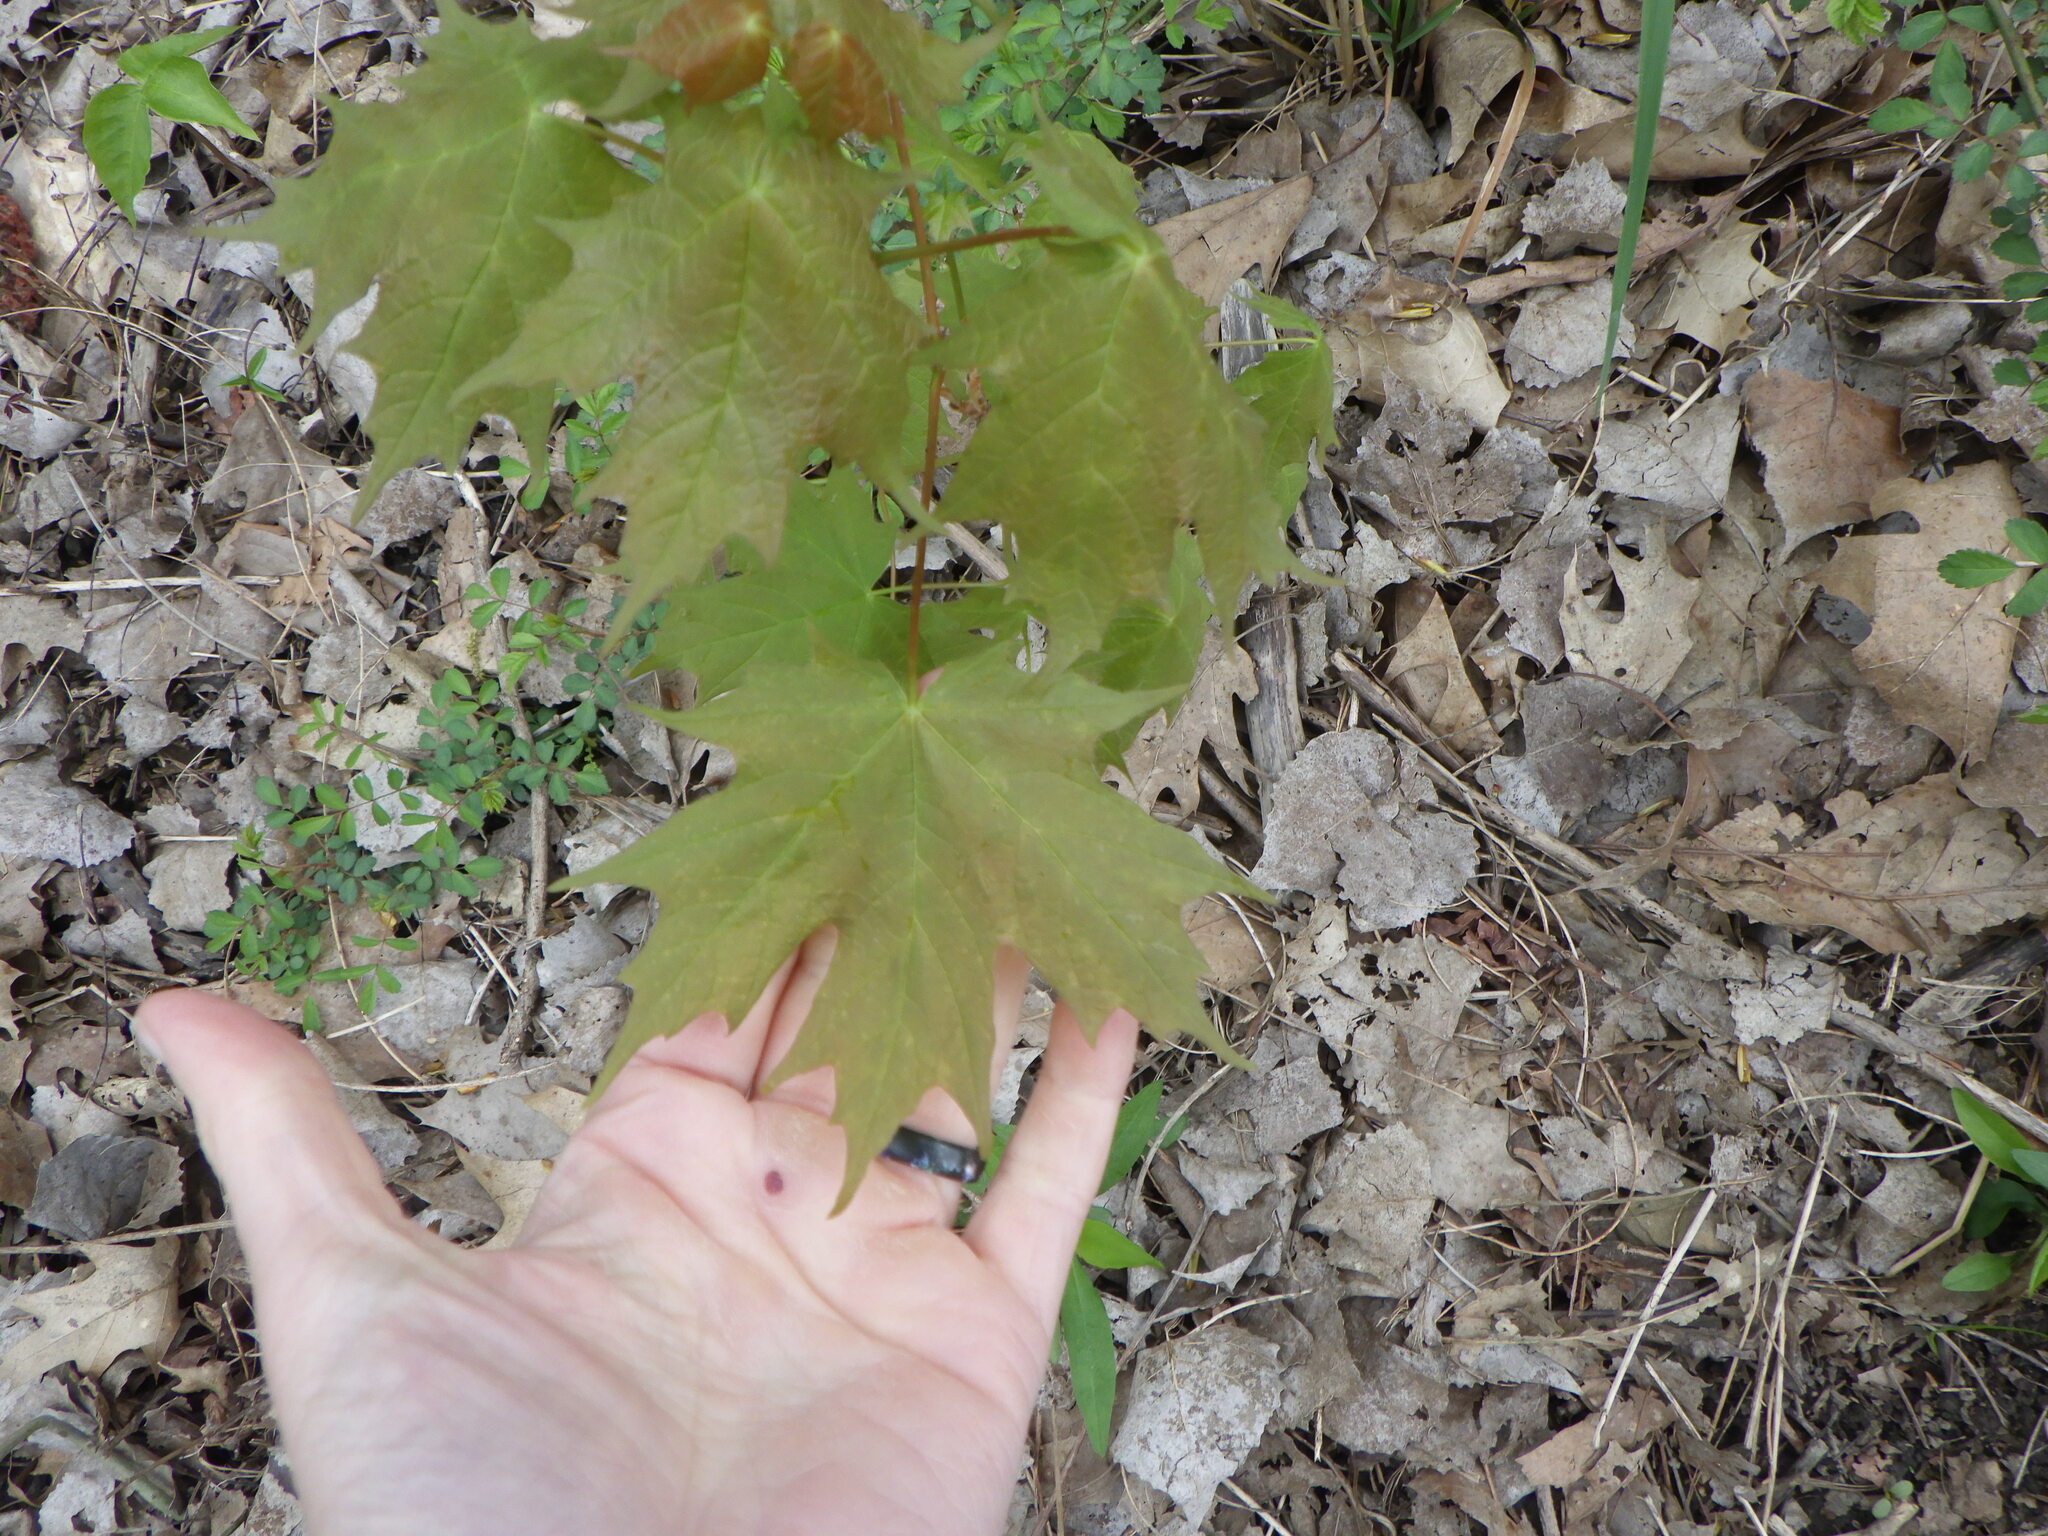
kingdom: Plantae
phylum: Tracheophyta
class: Magnoliopsida
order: Sapindales
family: Sapindaceae
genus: Acer
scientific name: Acer saccharum
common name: Sugar maple
